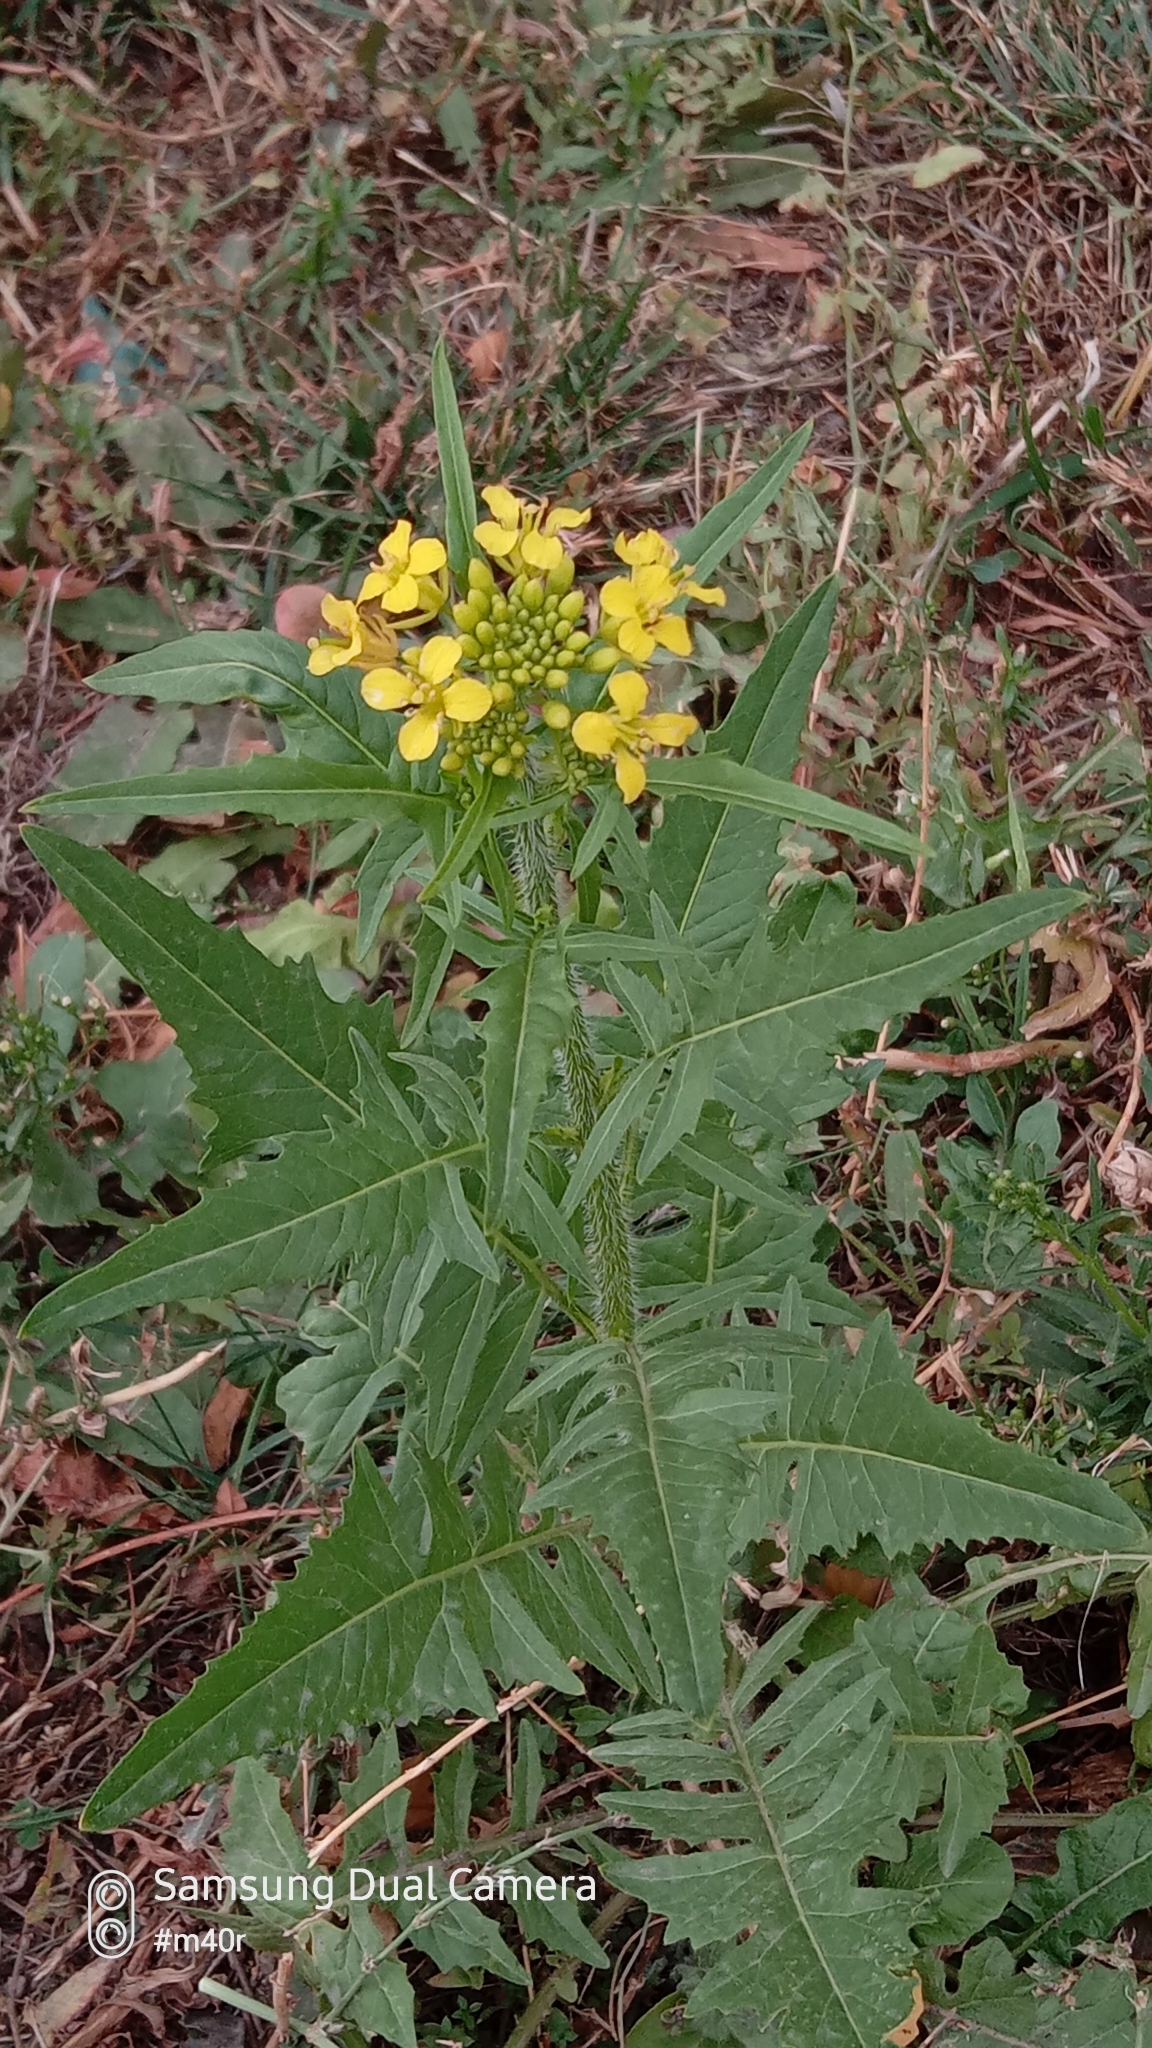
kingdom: Plantae
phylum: Tracheophyta
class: Magnoliopsida
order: Brassicales
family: Brassicaceae
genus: Sisymbrium
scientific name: Sisymbrium loeselii
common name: False london-rocket
